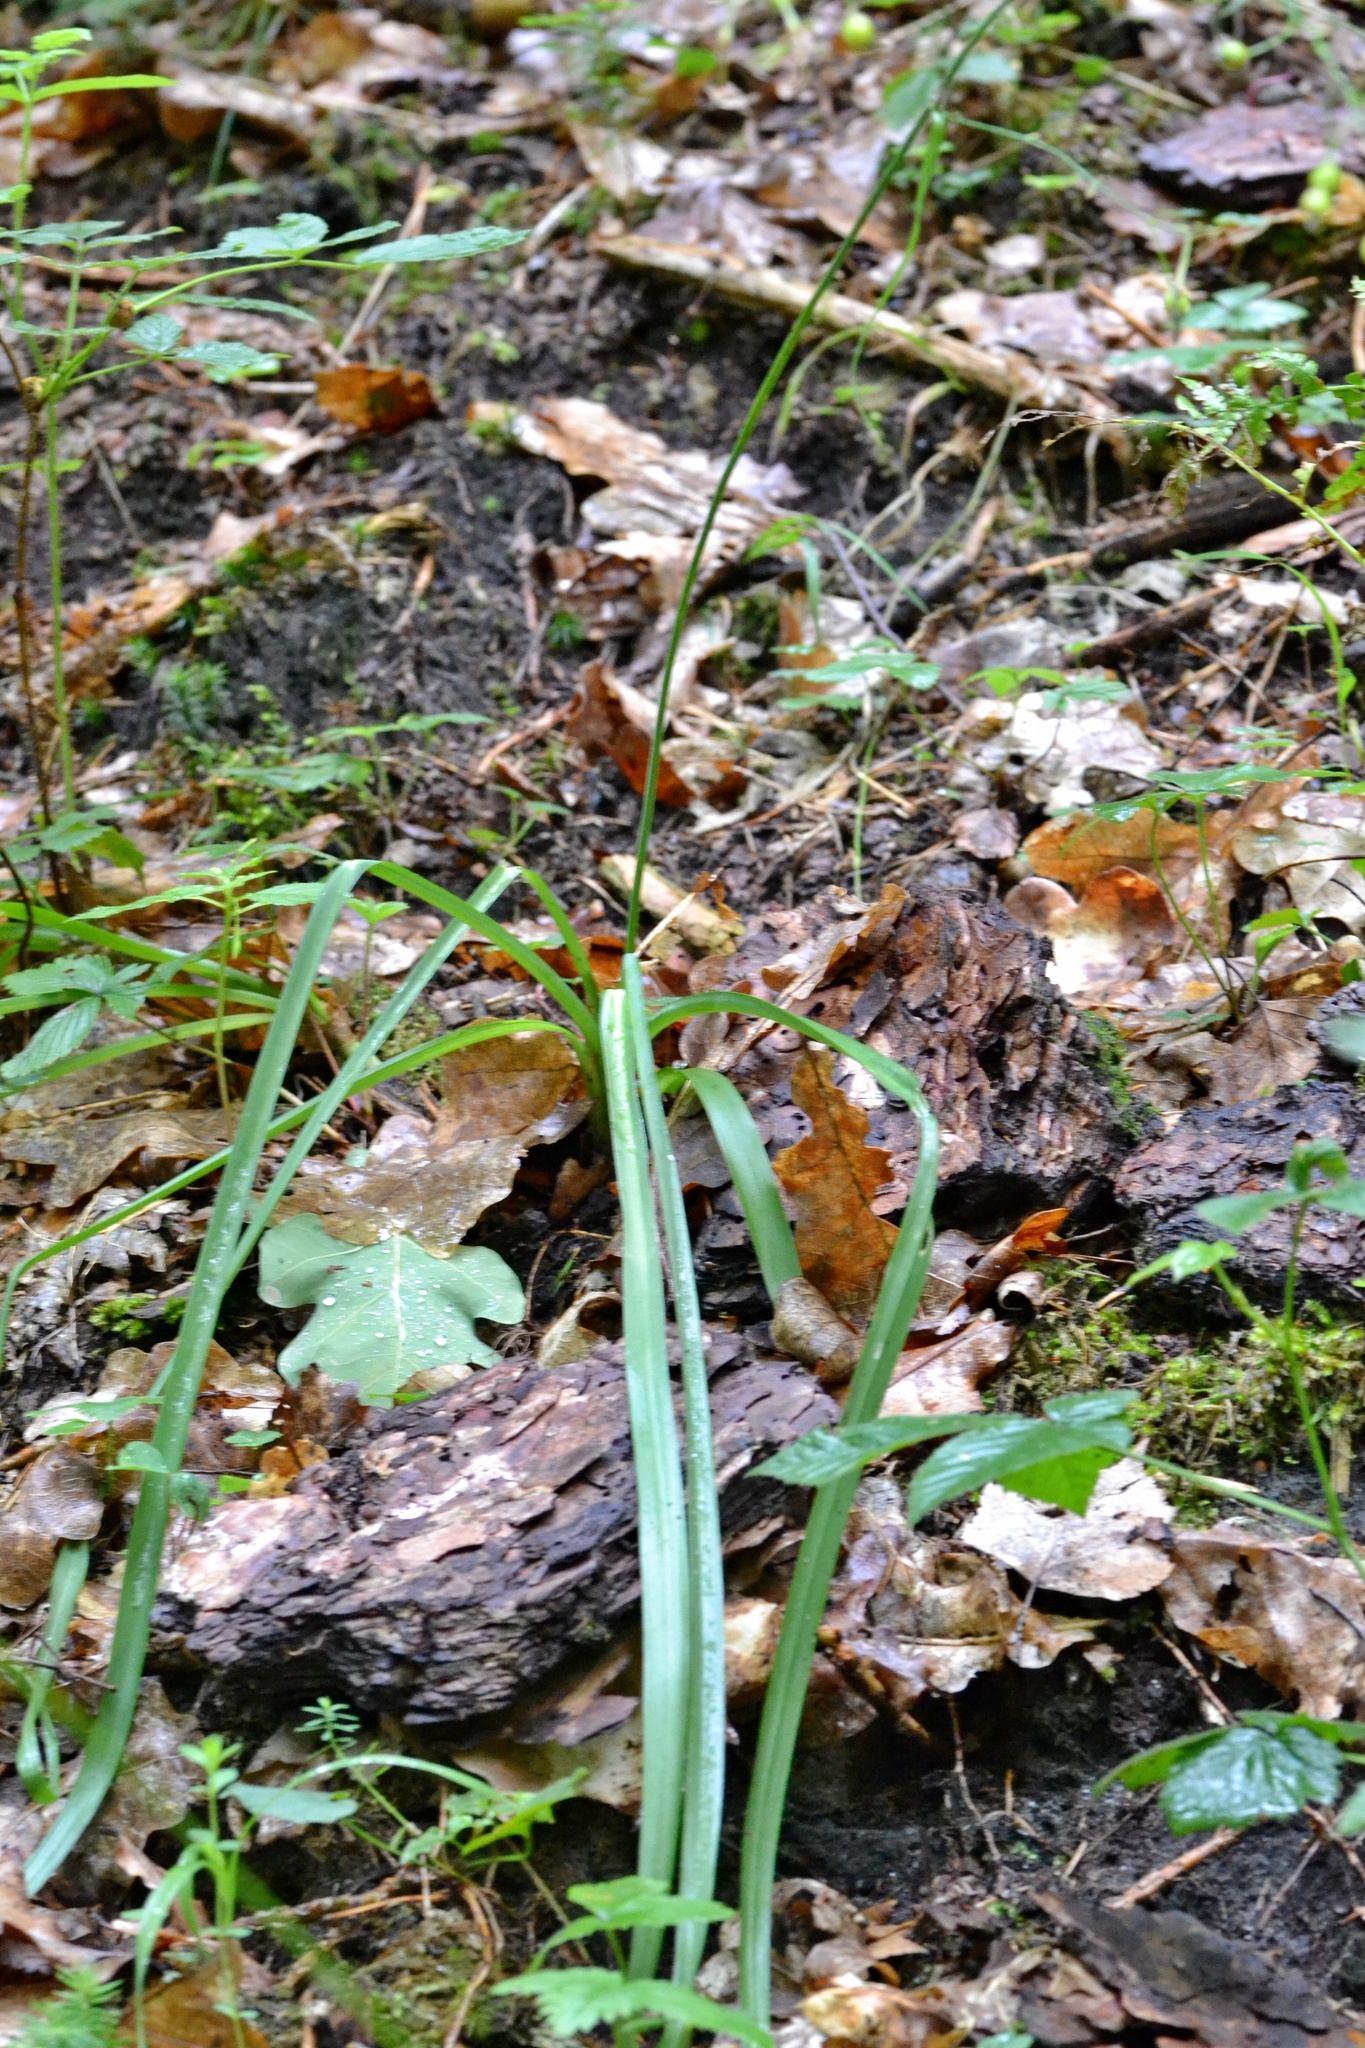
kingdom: Plantae
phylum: Tracheophyta
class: Liliopsida
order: Asparagales
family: Asparagaceae
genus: Anthericum
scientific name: Anthericum ramosum
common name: Branched st. bernard's-lily
